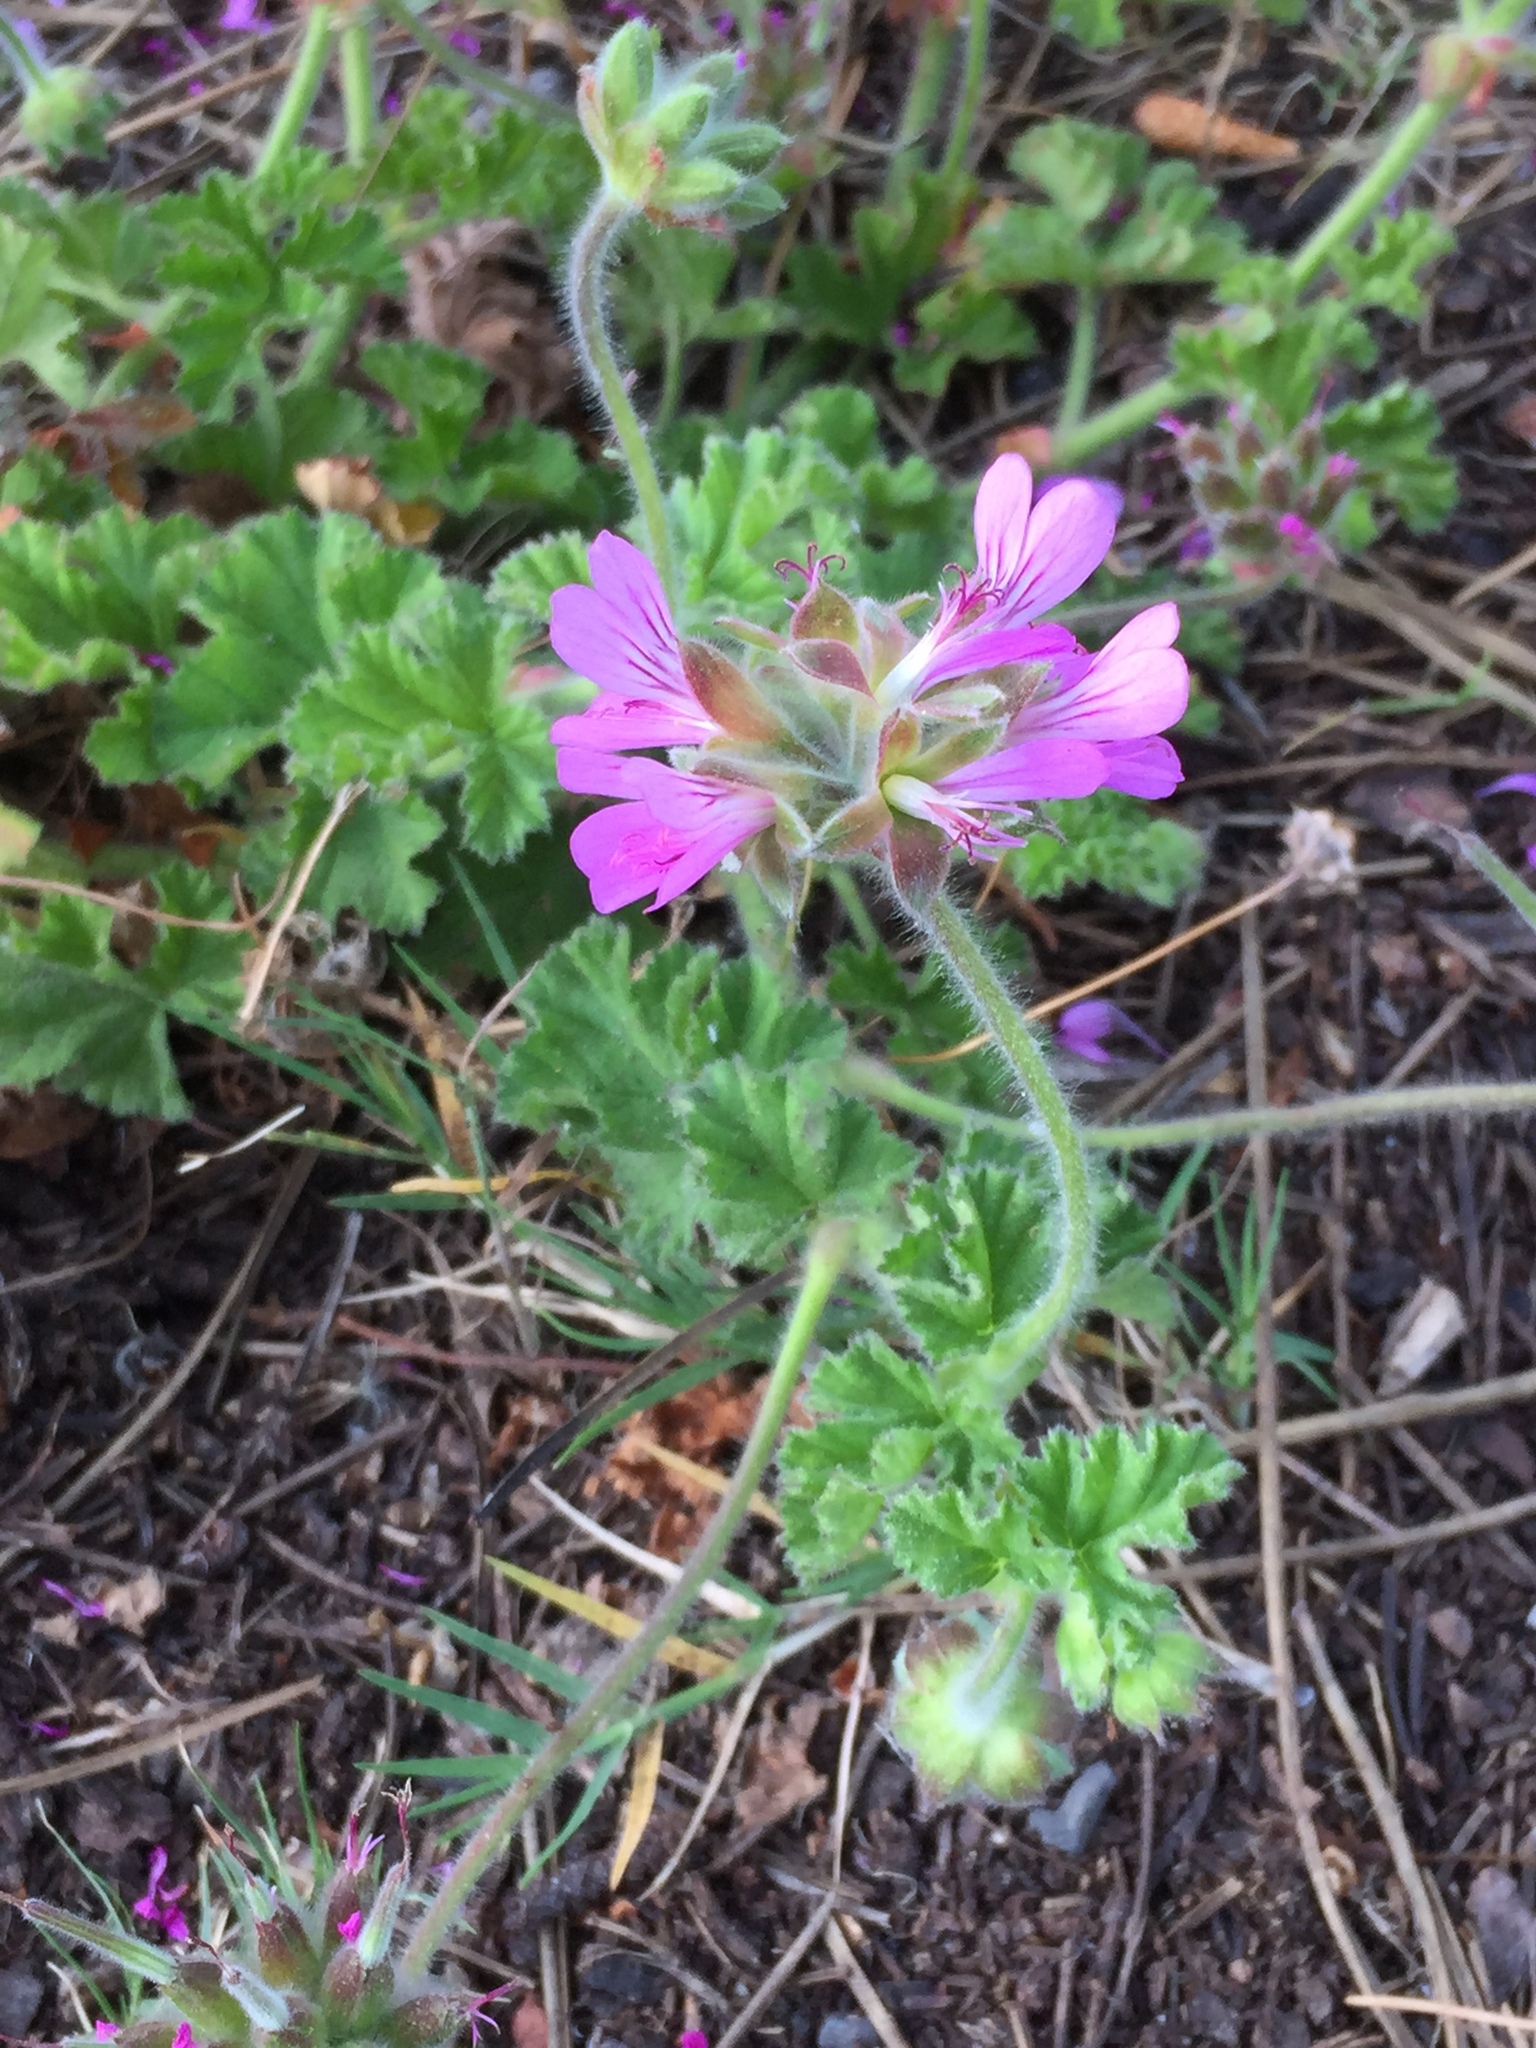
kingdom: Plantae
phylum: Tracheophyta
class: Magnoliopsida
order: Geraniales
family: Geraniaceae
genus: Pelargonium
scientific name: Pelargonium capitatum
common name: Rose scented geranium
